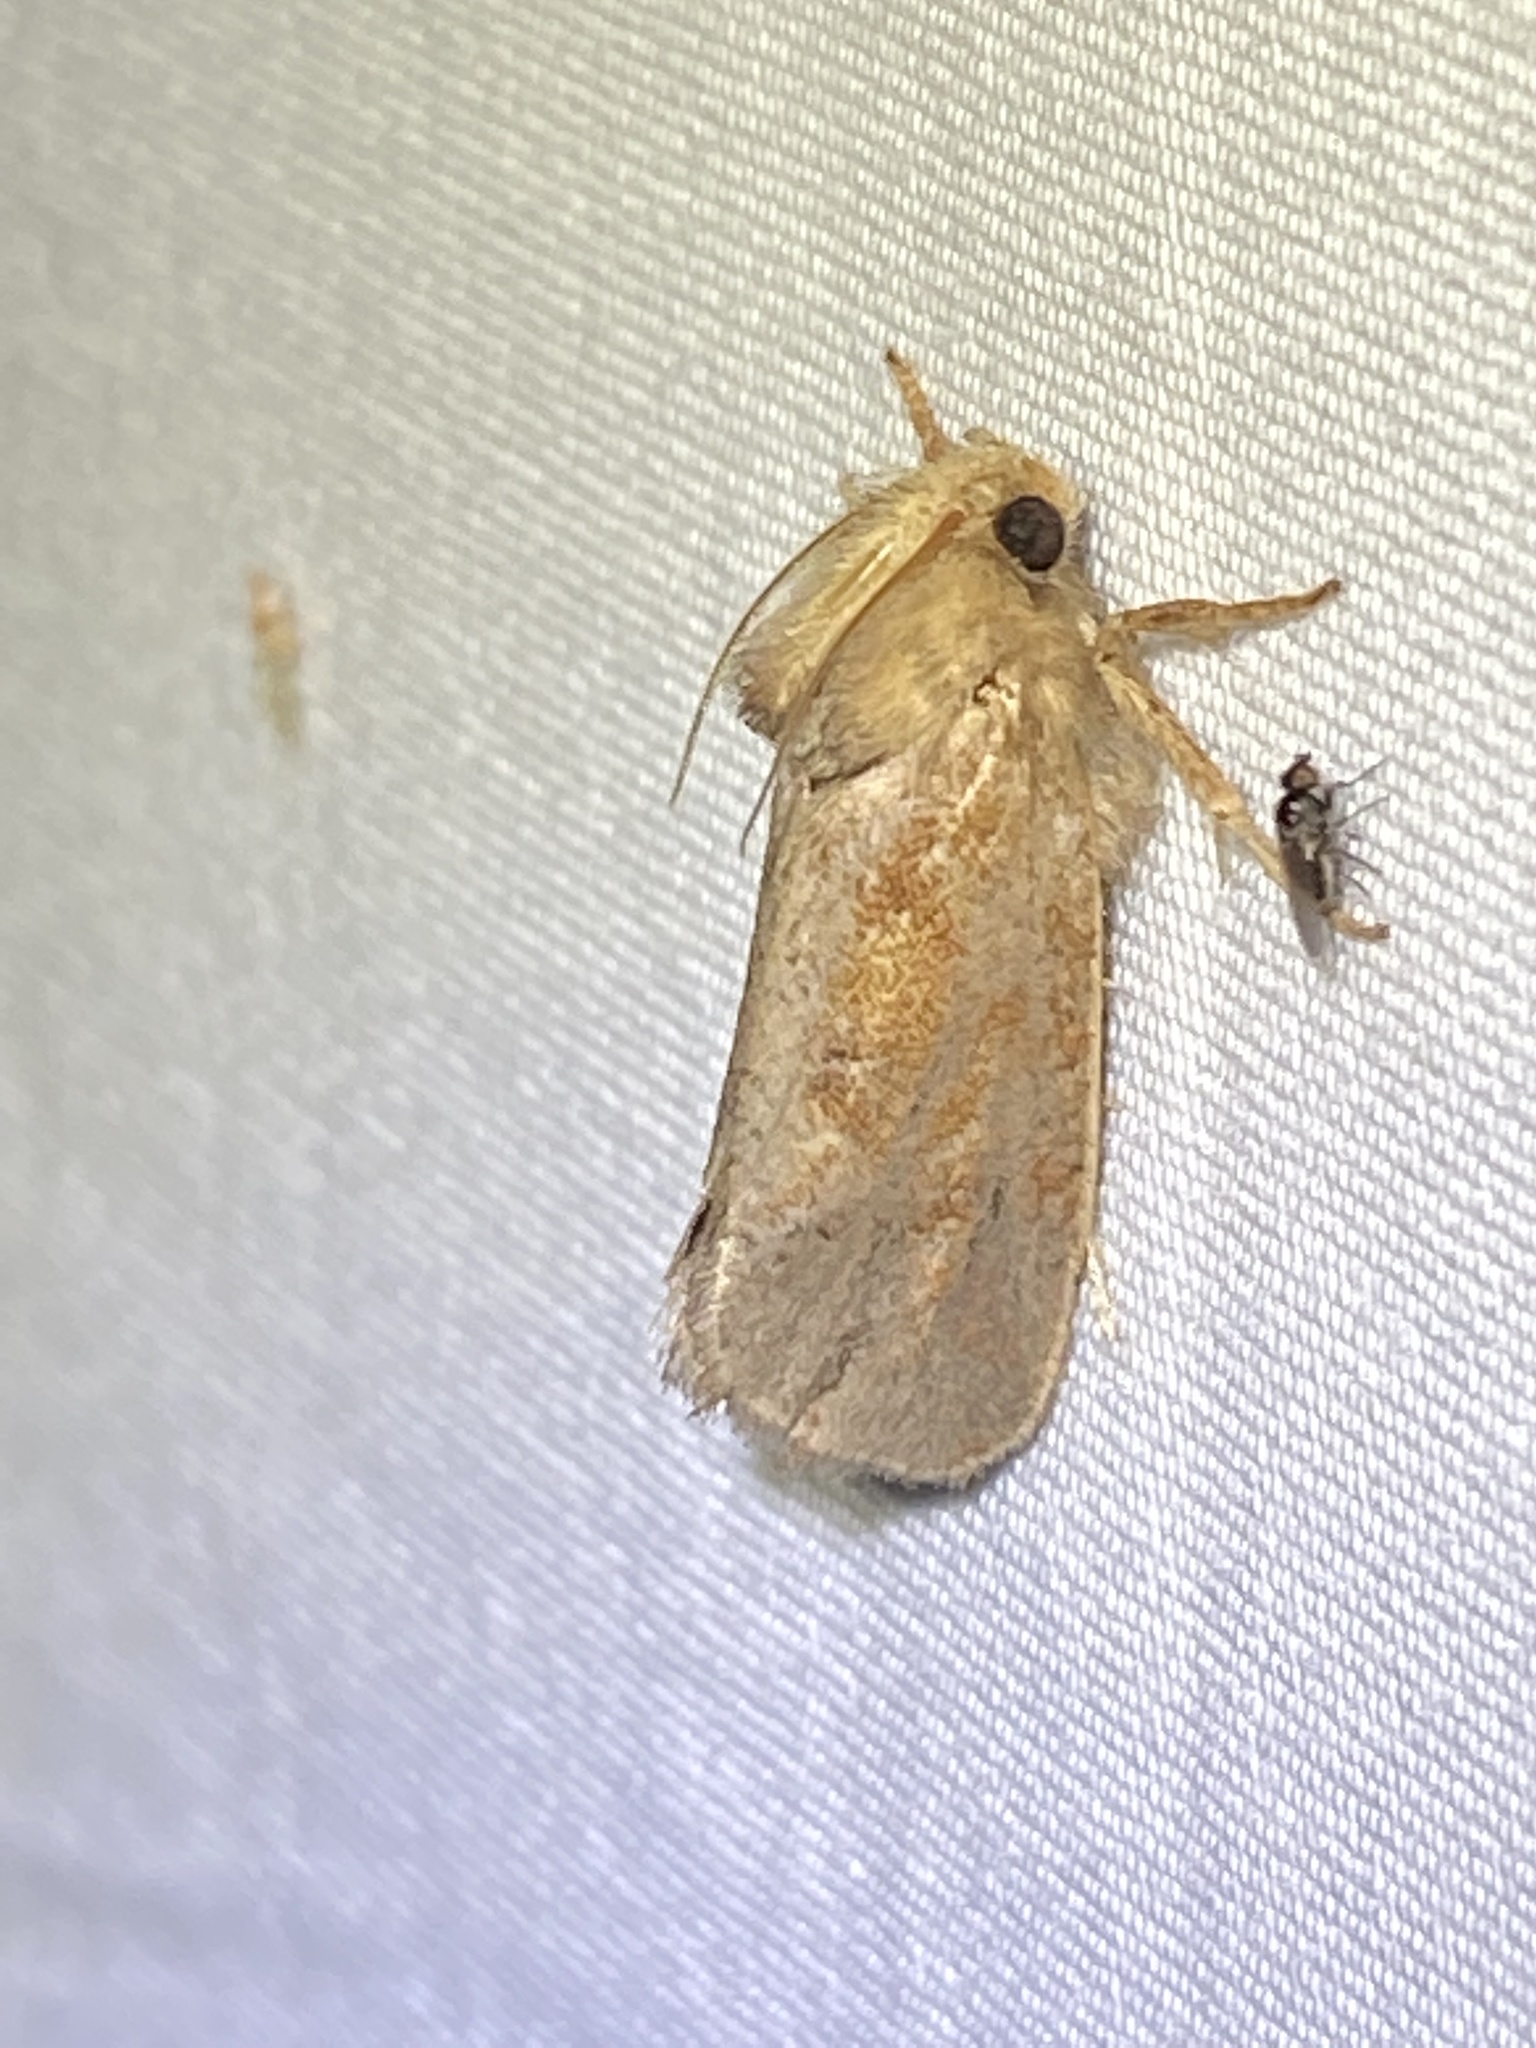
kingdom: Animalia
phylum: Arthropoda
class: Insecta
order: Lepidoptera
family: Tineidae
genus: Acrolophus
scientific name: Acrolophus plumifrontella
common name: Eastern grass tubeworm moth
